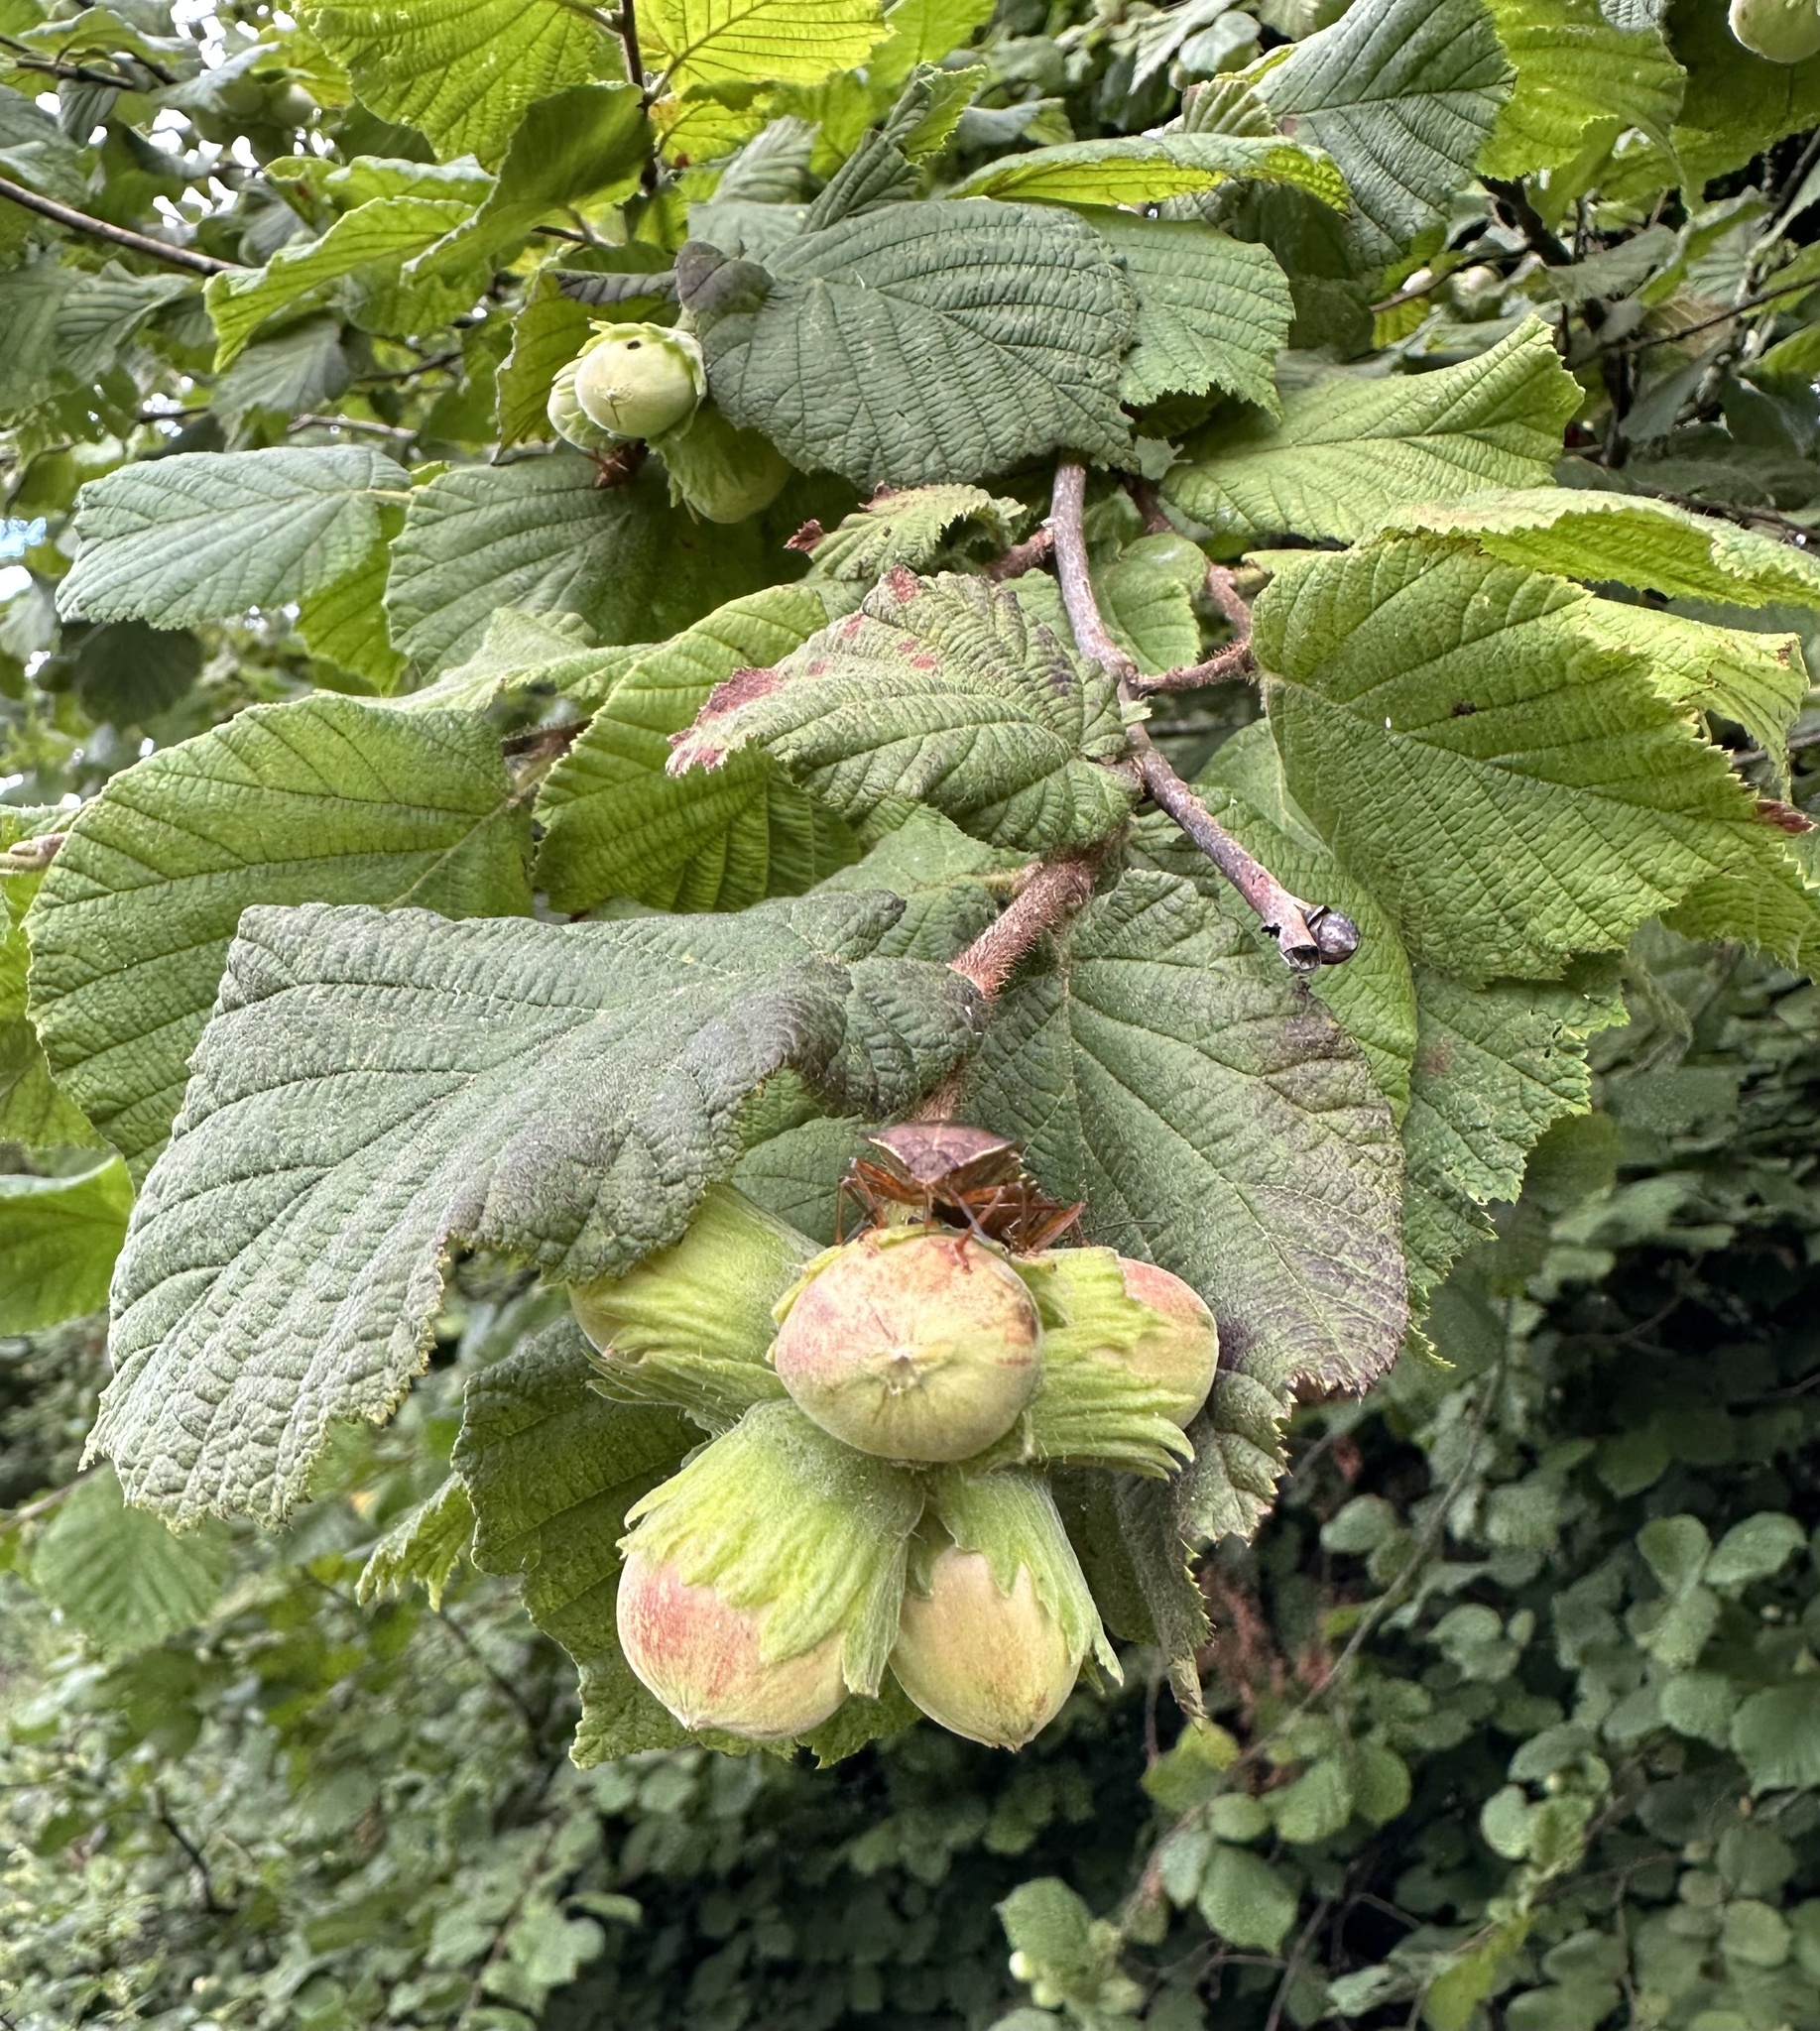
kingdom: Plantae
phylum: Tracheophyta
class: Magnoliopsida
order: Fagales
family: Betulaceae
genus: Corylus
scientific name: Corylus avellana
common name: European hazel
